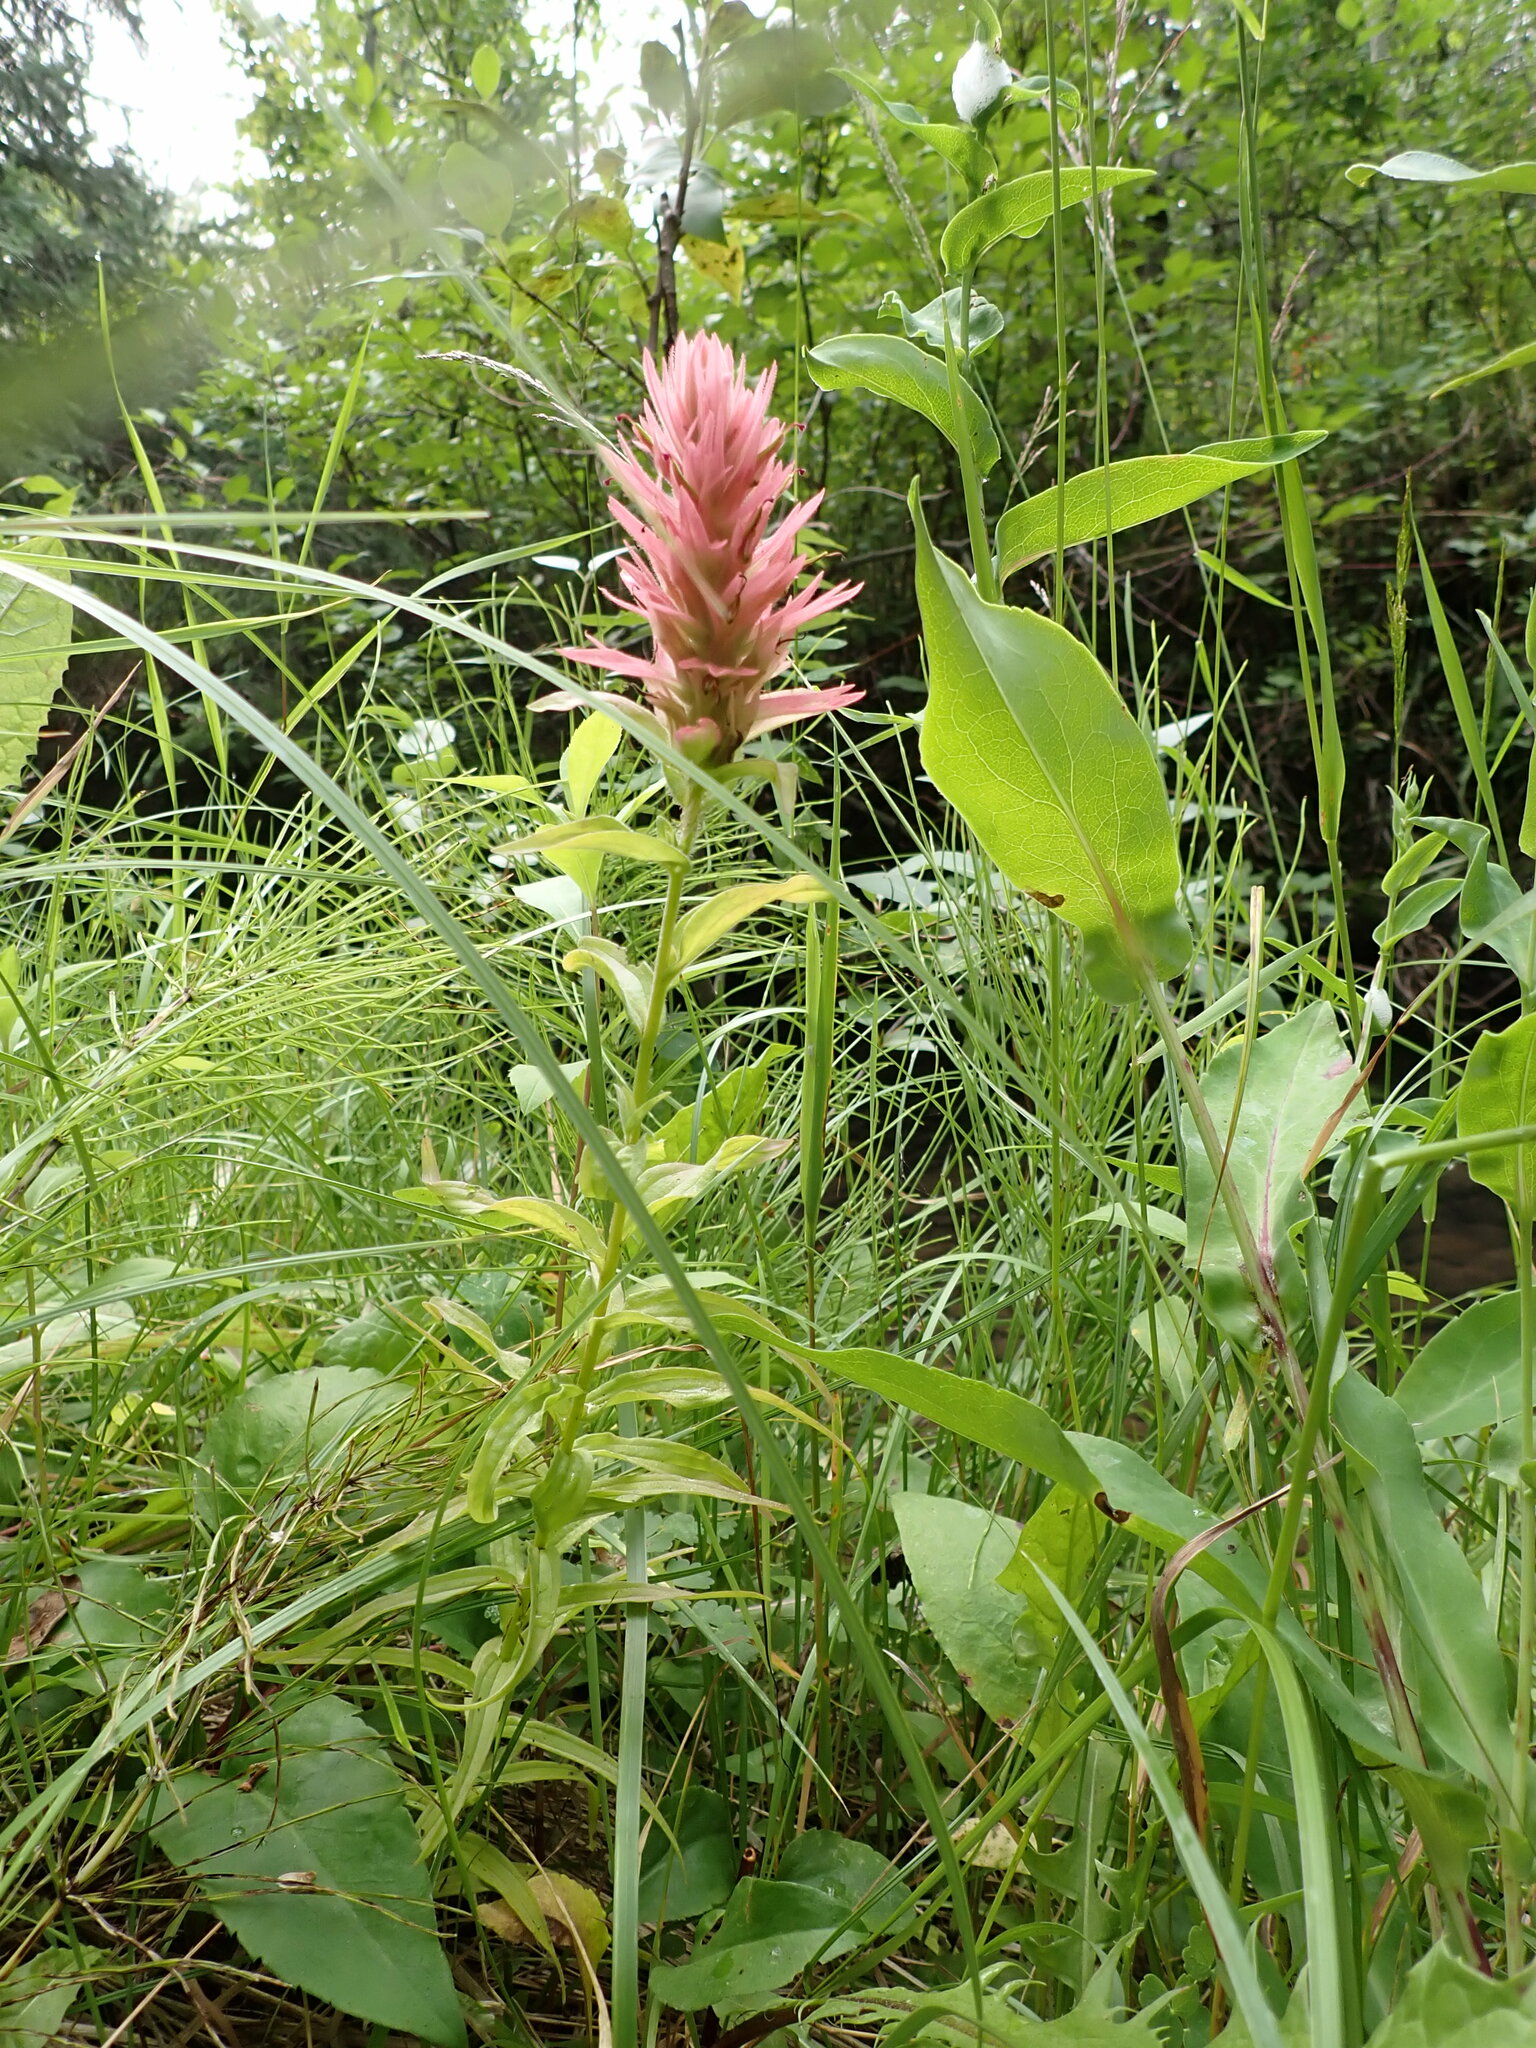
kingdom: Plantae
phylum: Tracheophyta
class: Magnoliopsida
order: Lamiales
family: Orobanchaceae
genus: Castilleja
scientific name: Castilleja miniata
